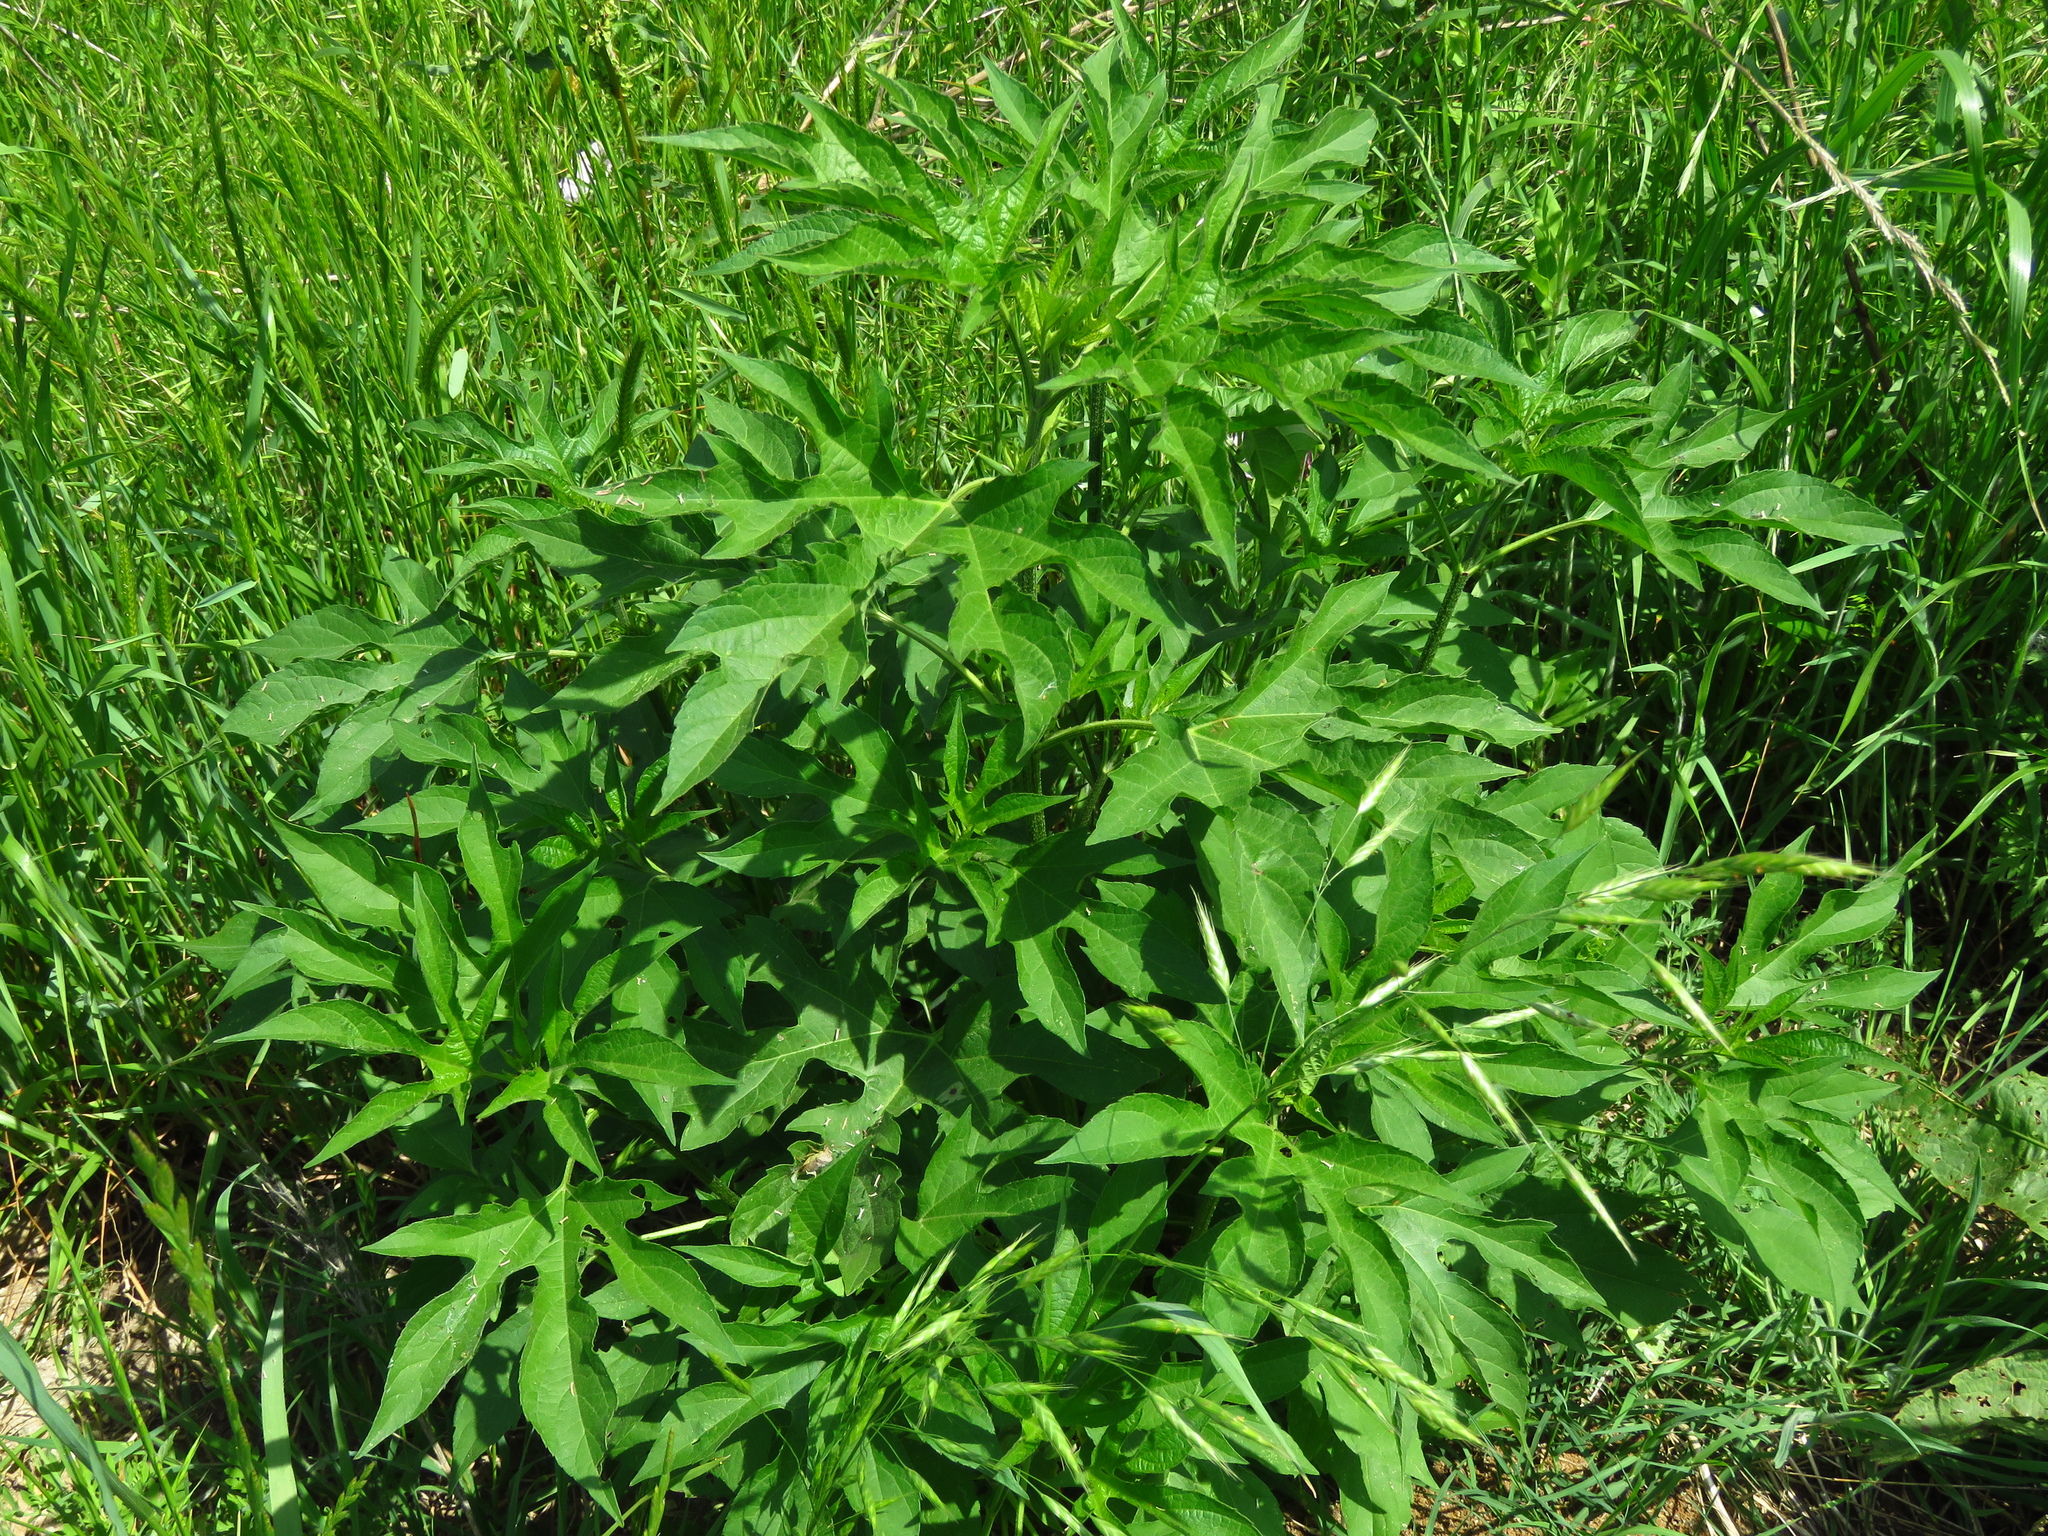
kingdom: Plantae
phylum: Tracheophyta
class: Magnoliopsida
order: Asterales
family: Asteraceae
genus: Ambrosia
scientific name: Ambrosia trifida
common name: Giant ragweed
